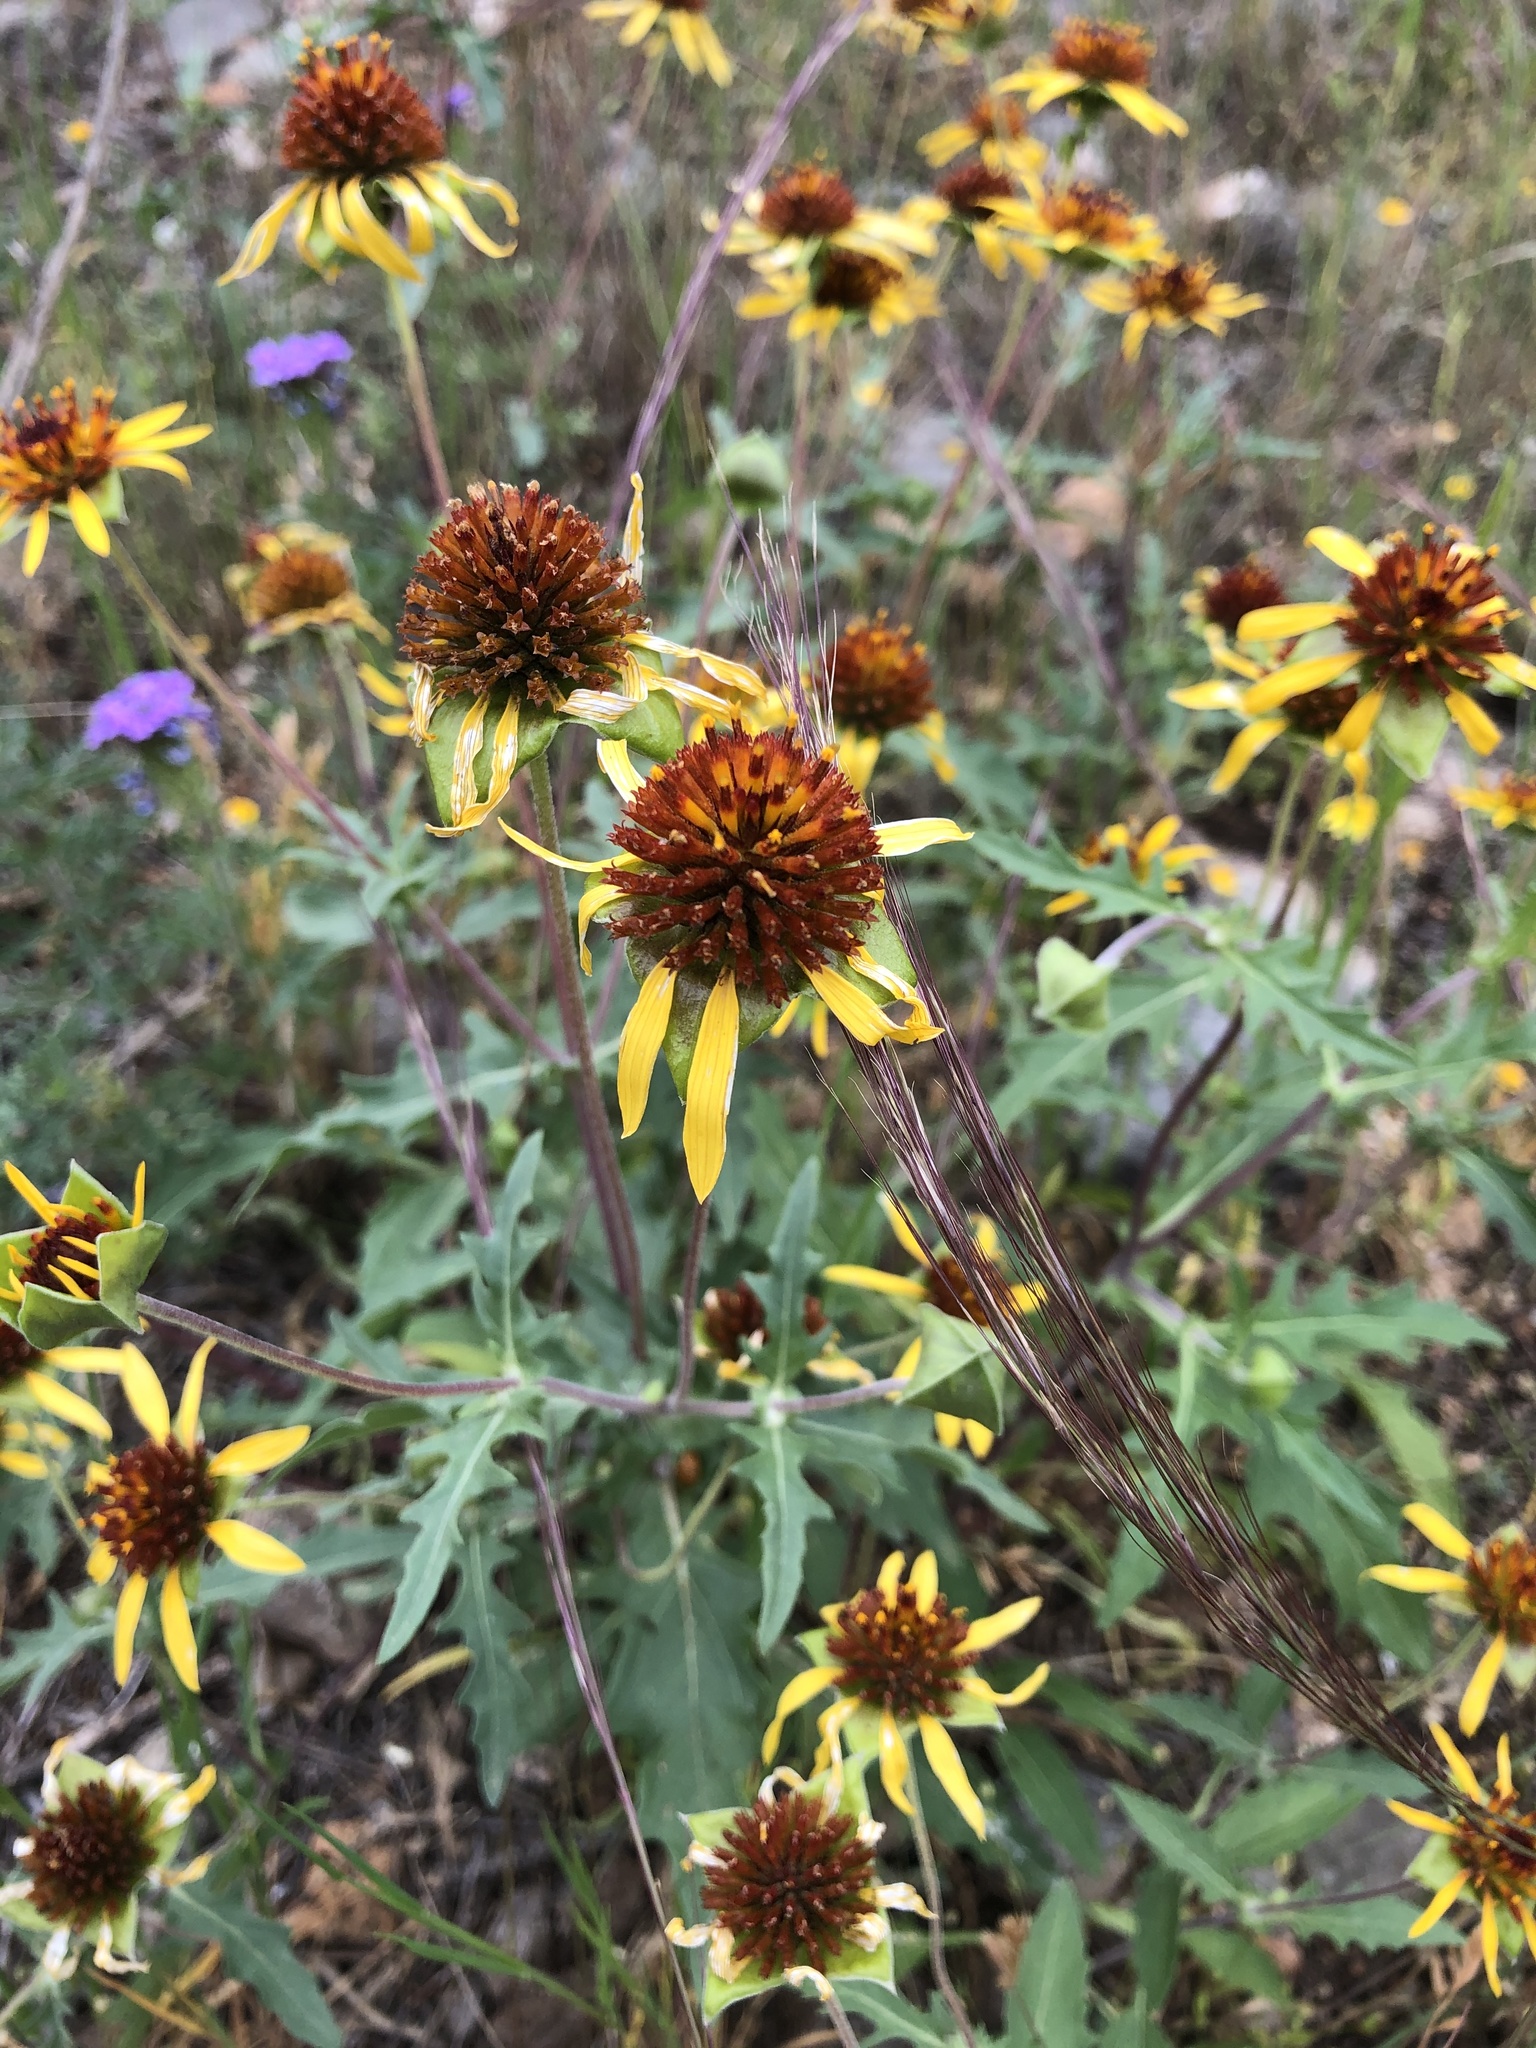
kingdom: Plantae
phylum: Tracheophyta
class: Magnoliopsida
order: Asterales
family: Asteraceae
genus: Tetragonotheca
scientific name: Tetragonotheca texana
